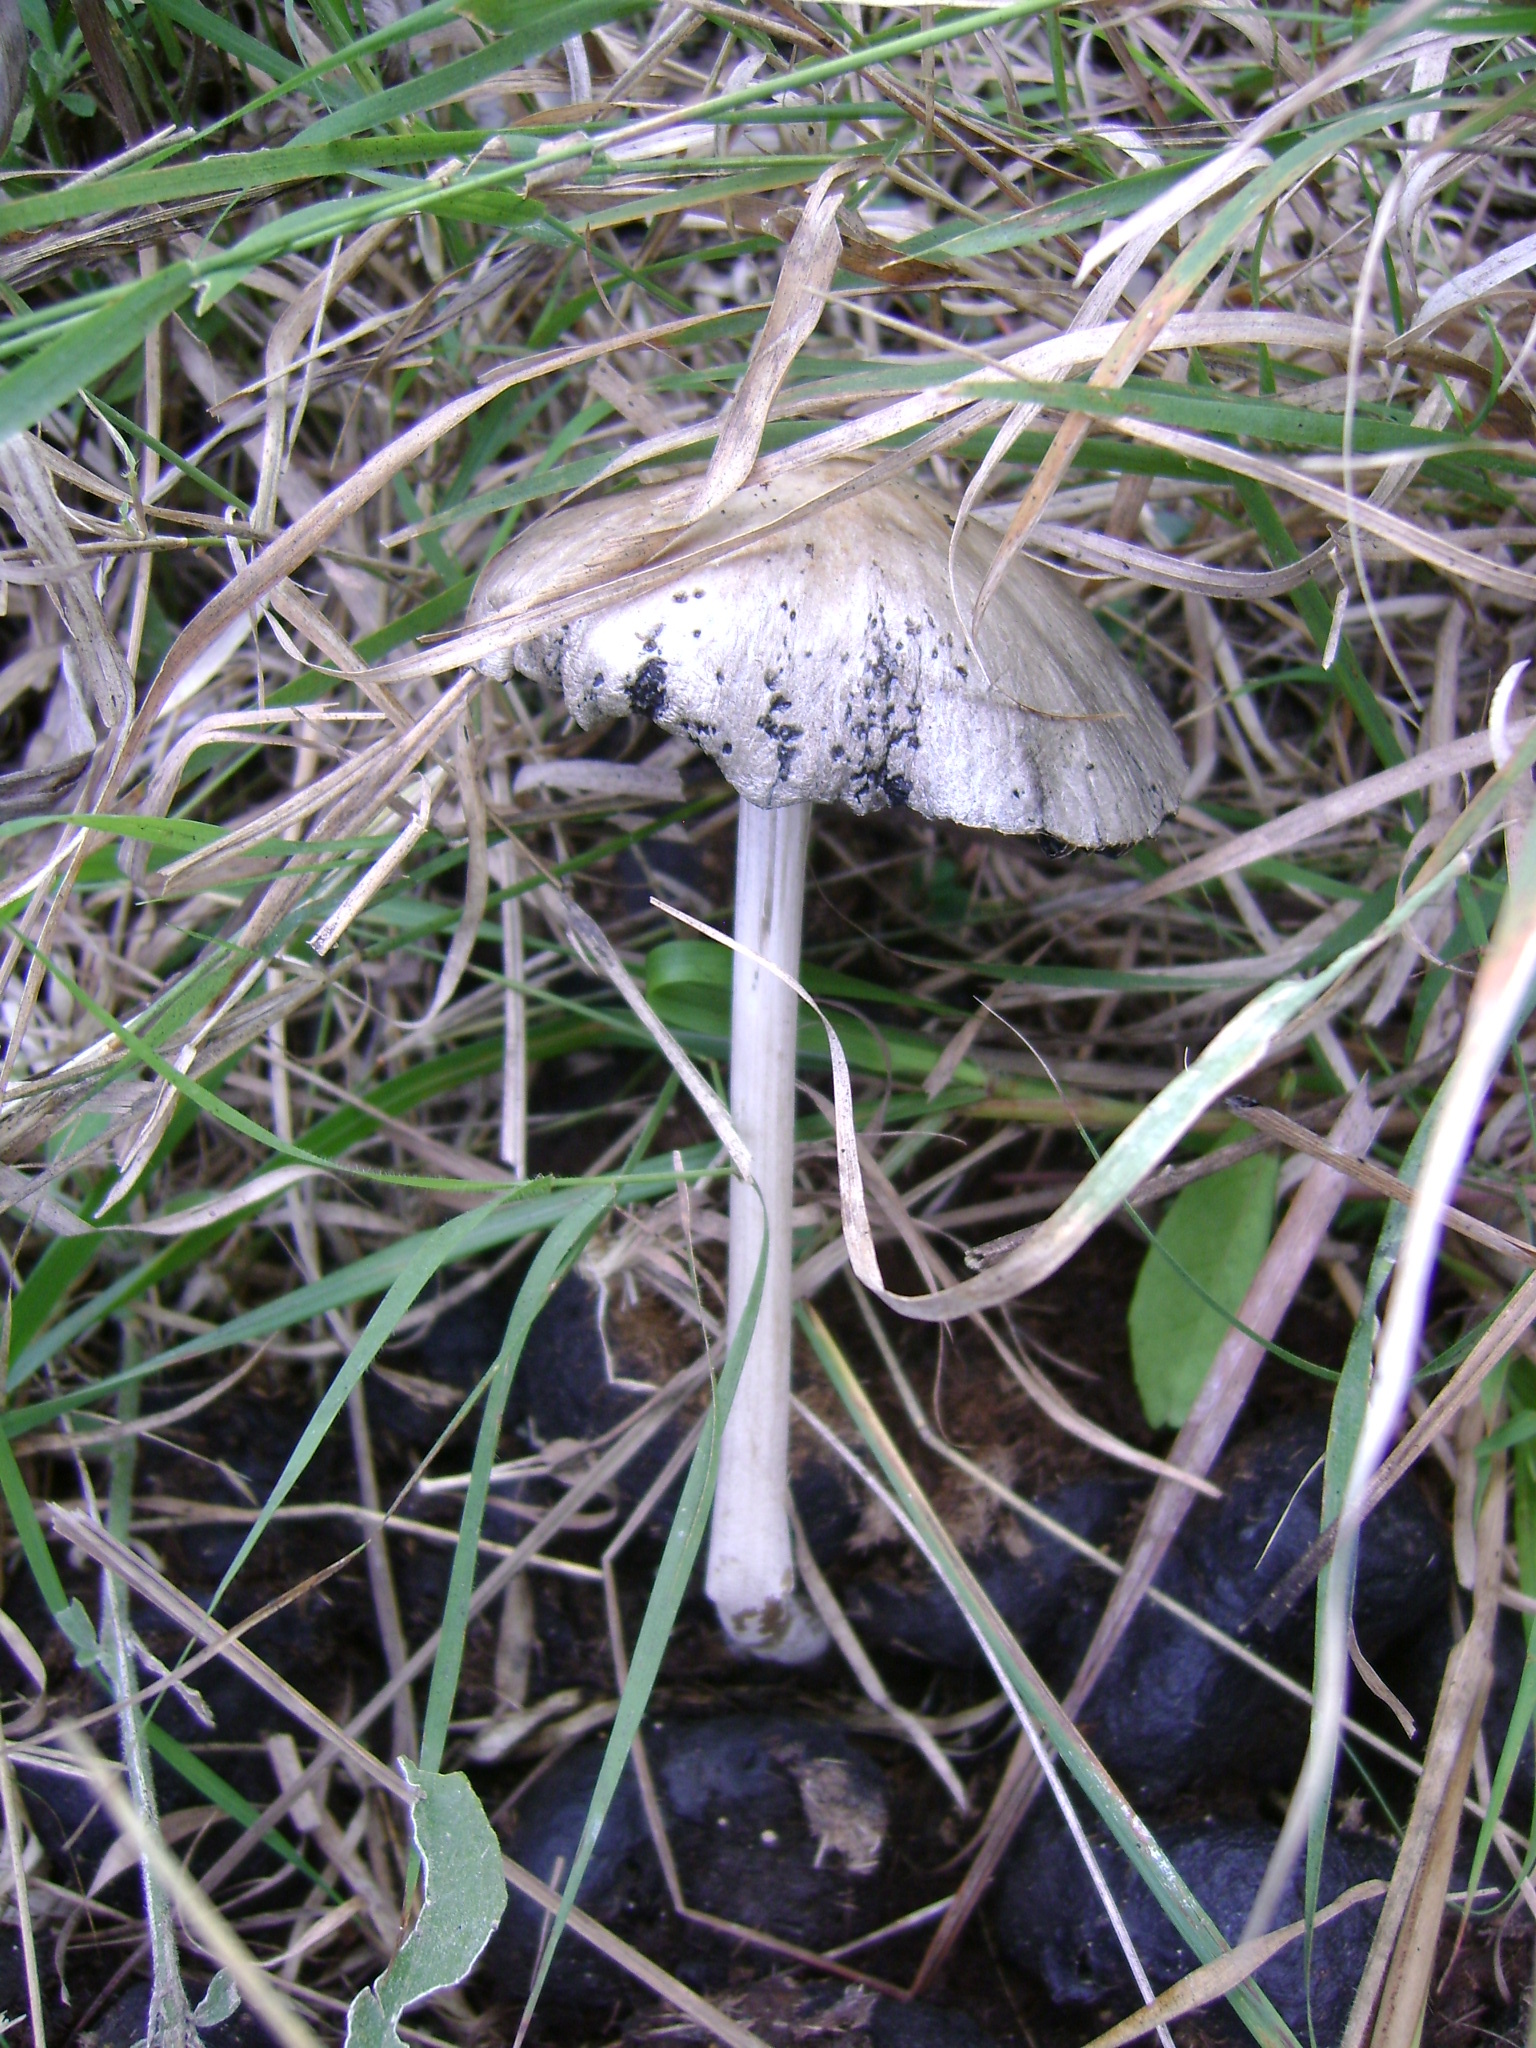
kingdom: Fungi
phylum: Basidiomycota
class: Agaricomycetes
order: Agaricales
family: Bolbitiaceae
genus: Panaeolus
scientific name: Panaeolus antillarum
